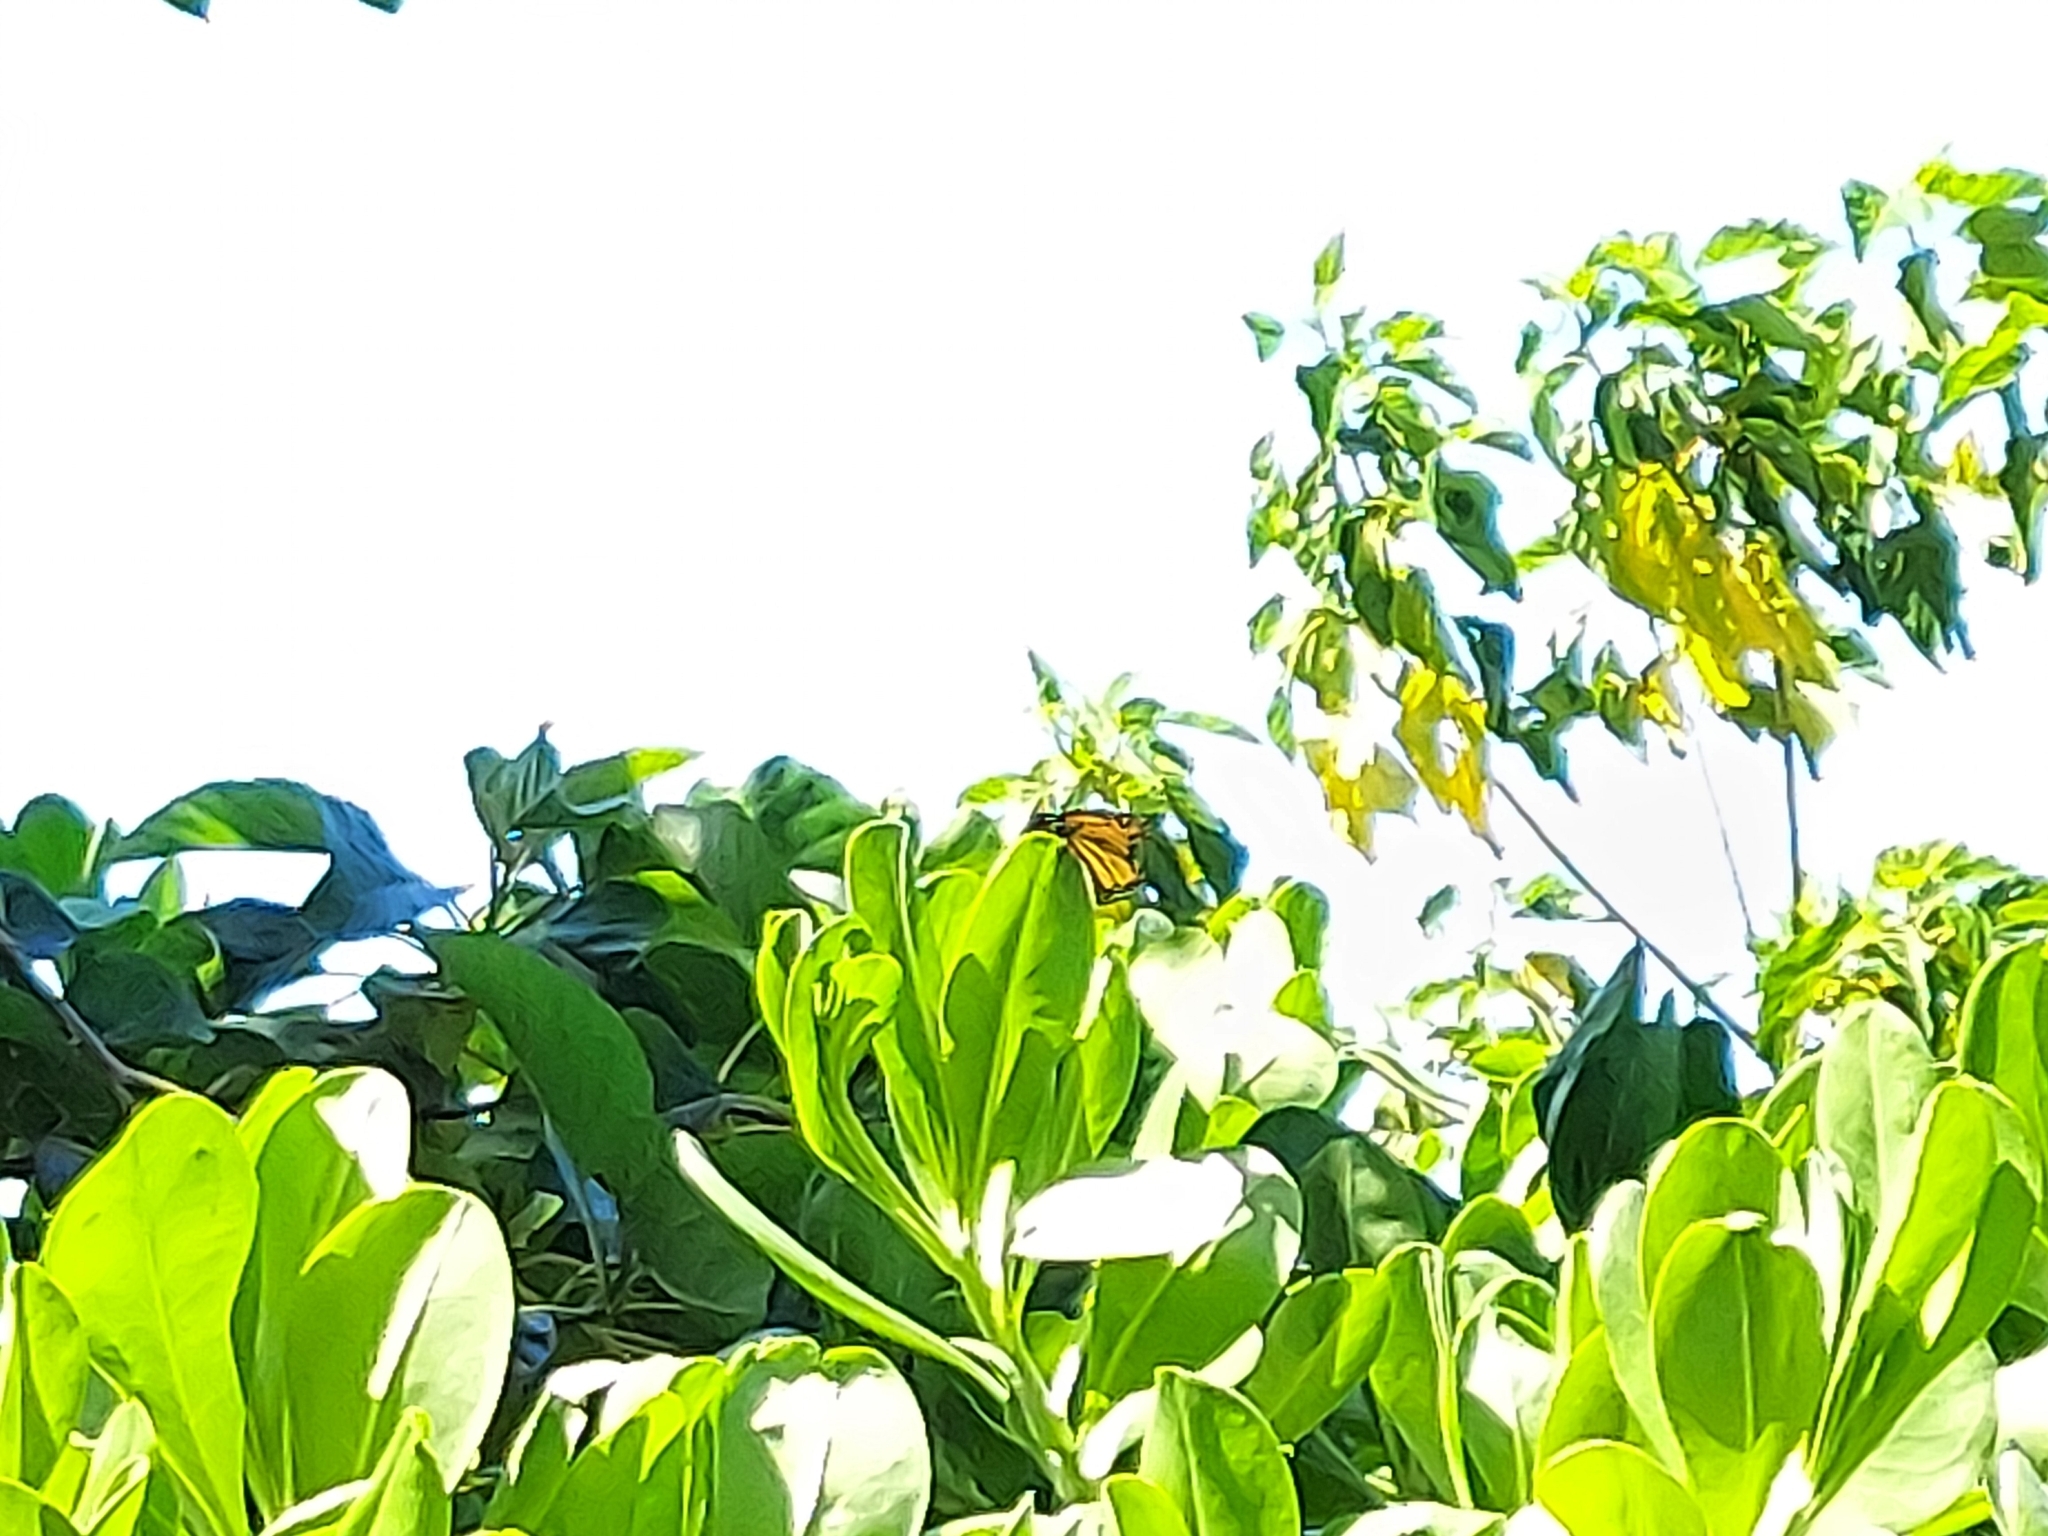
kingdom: Animalia
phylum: Arthropoda
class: Insecta
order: Lepidoptera
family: Nymphalidae
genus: Danaus
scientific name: Danaus plexippus
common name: Monarch
